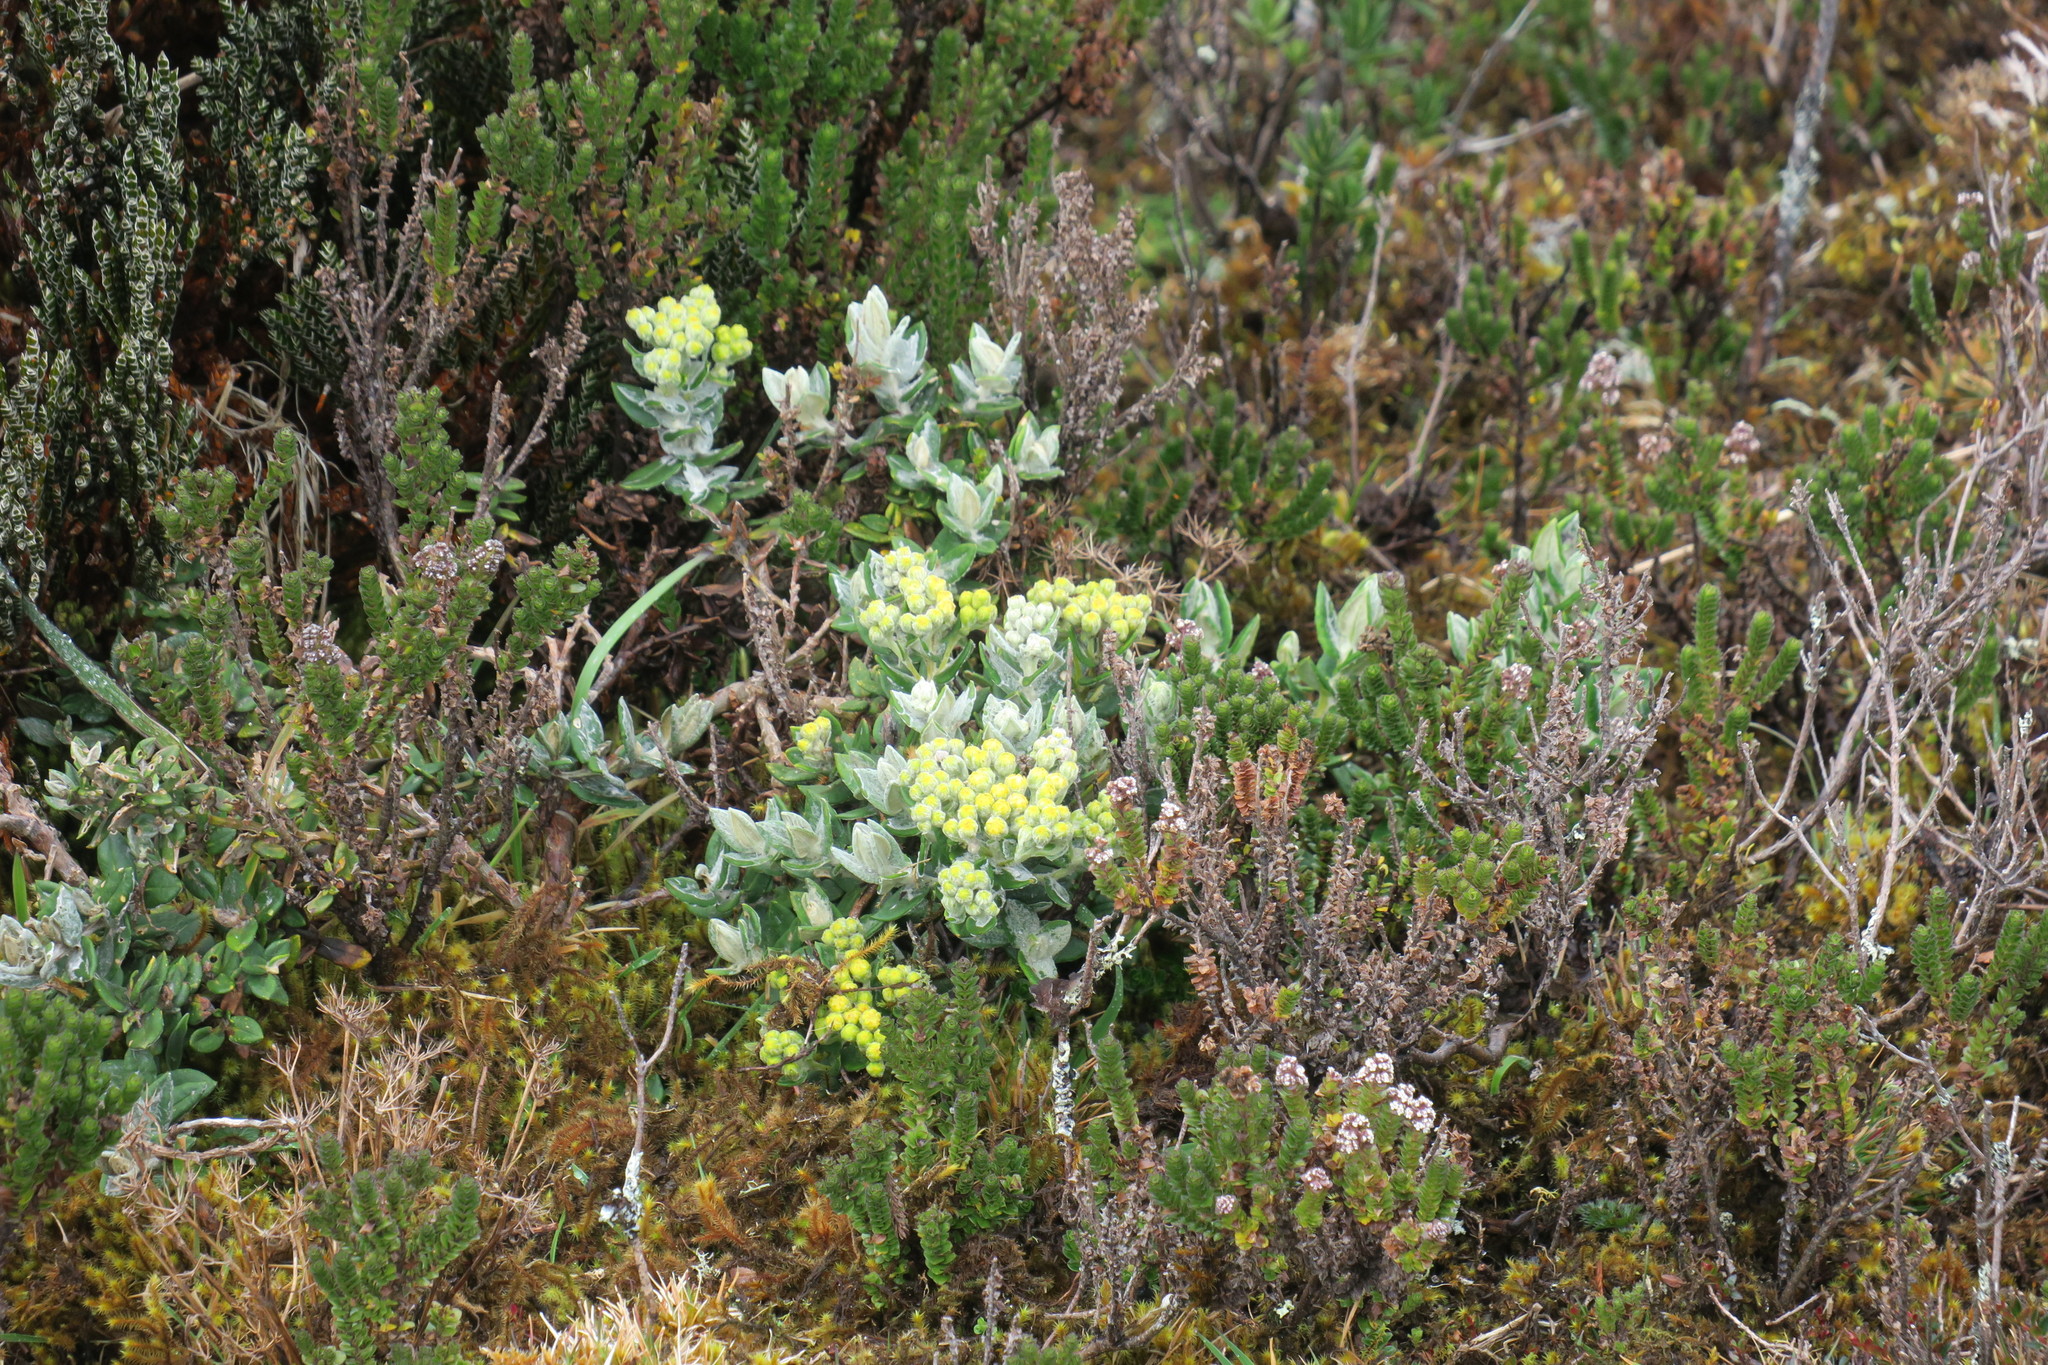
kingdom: Plantae
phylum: Tracheophyta
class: Magnoliopsida
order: Asterales
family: Asteraceae
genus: Monticalia
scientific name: Monticalia andicola
